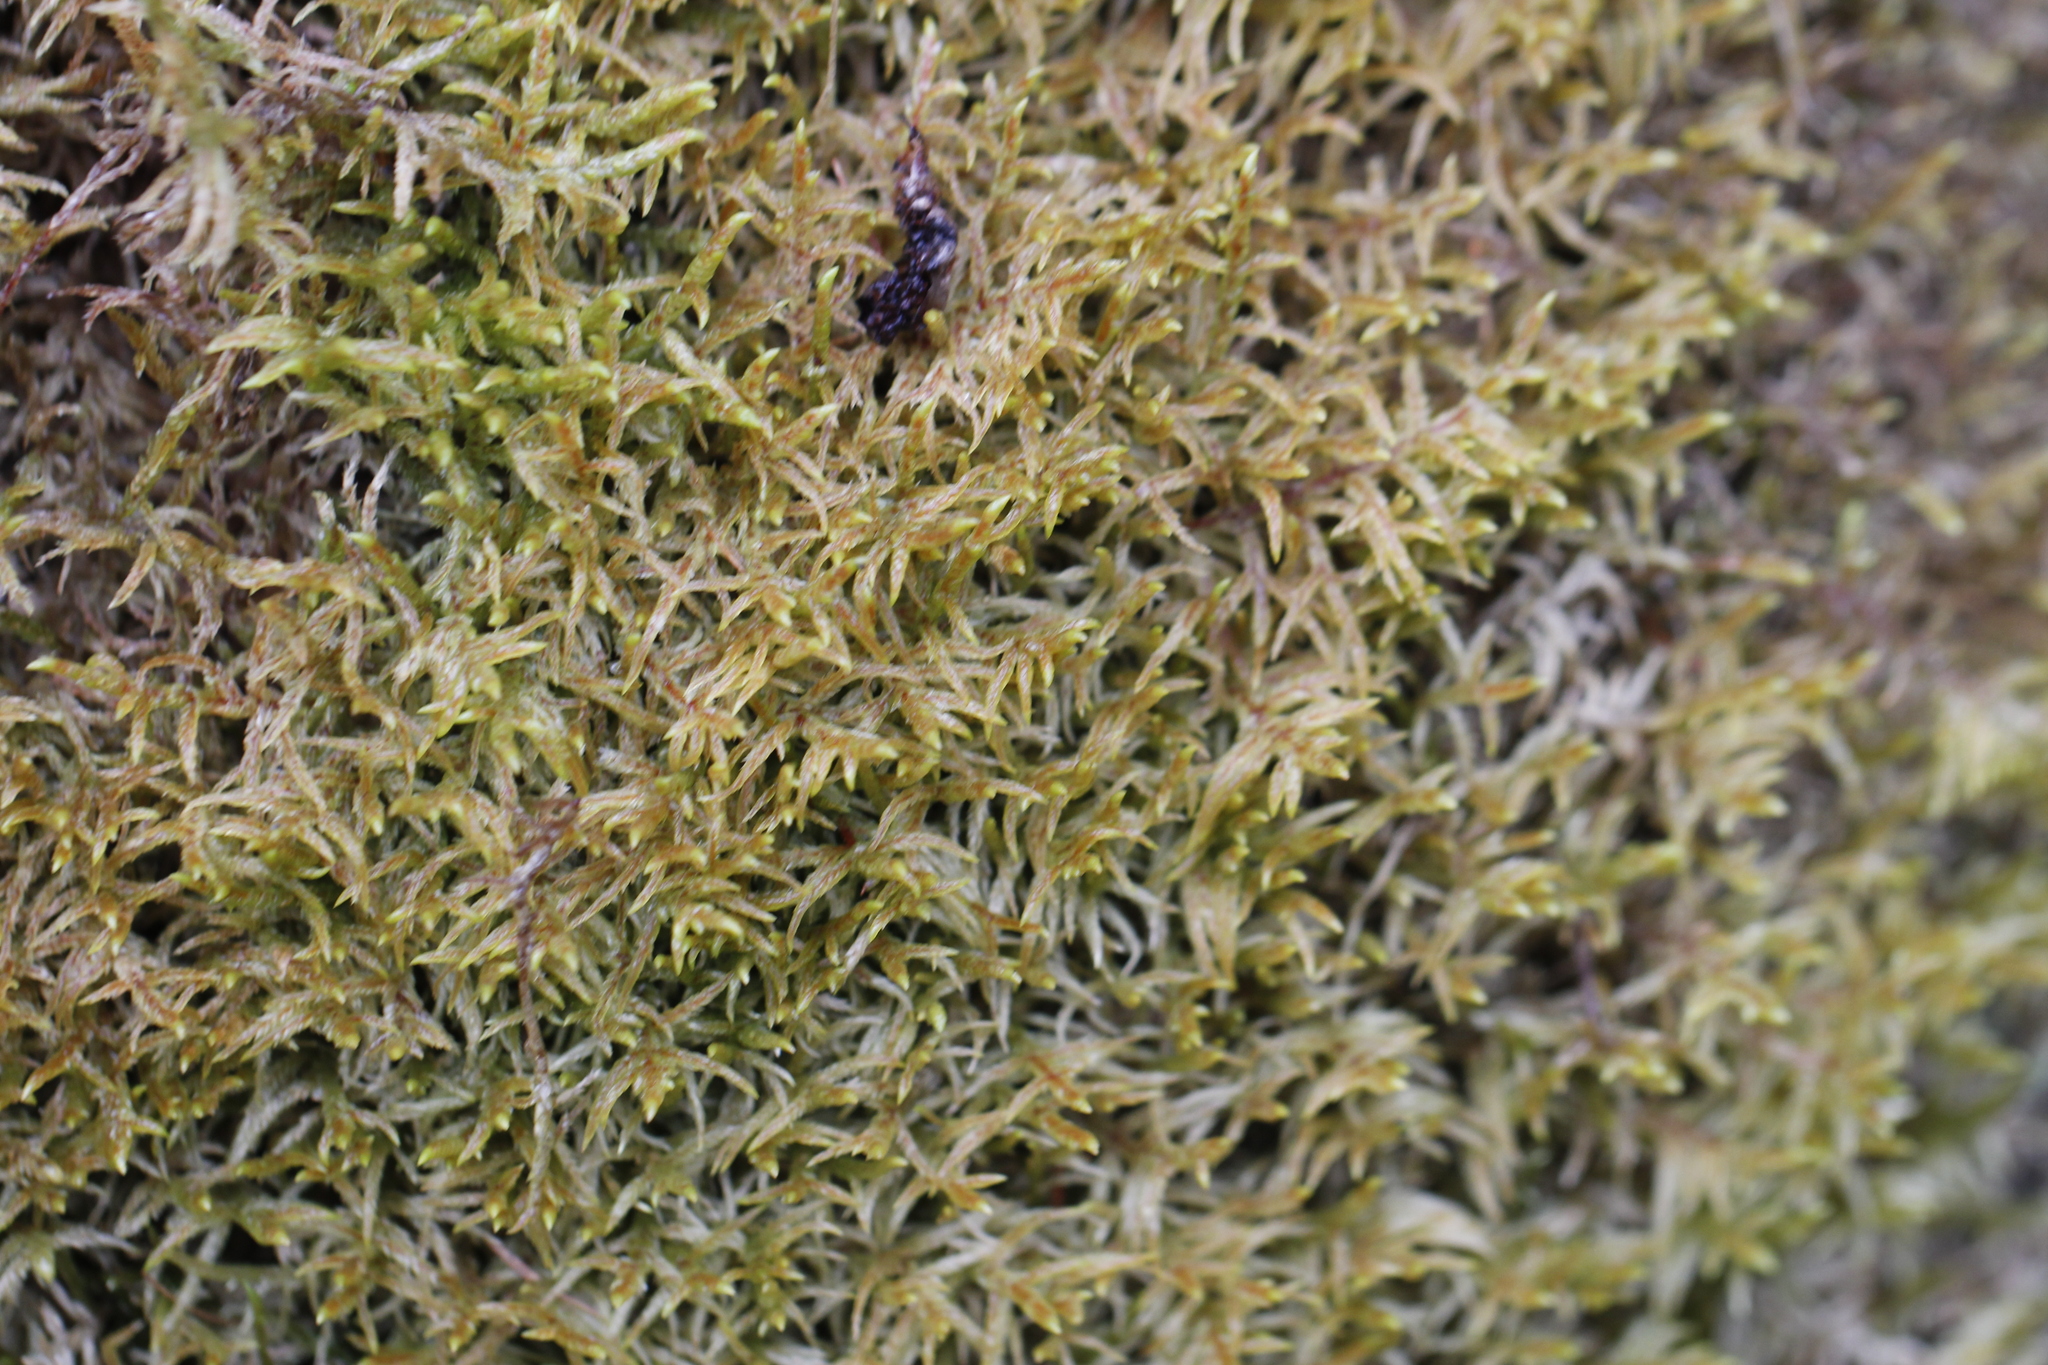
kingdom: Plantae
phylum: Bryophyta
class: Bryopsida
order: Hypnales
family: Hylocomiaceae
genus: Pleurozium
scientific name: Pleurozium schreberi
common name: Red-stemmed feather moss
